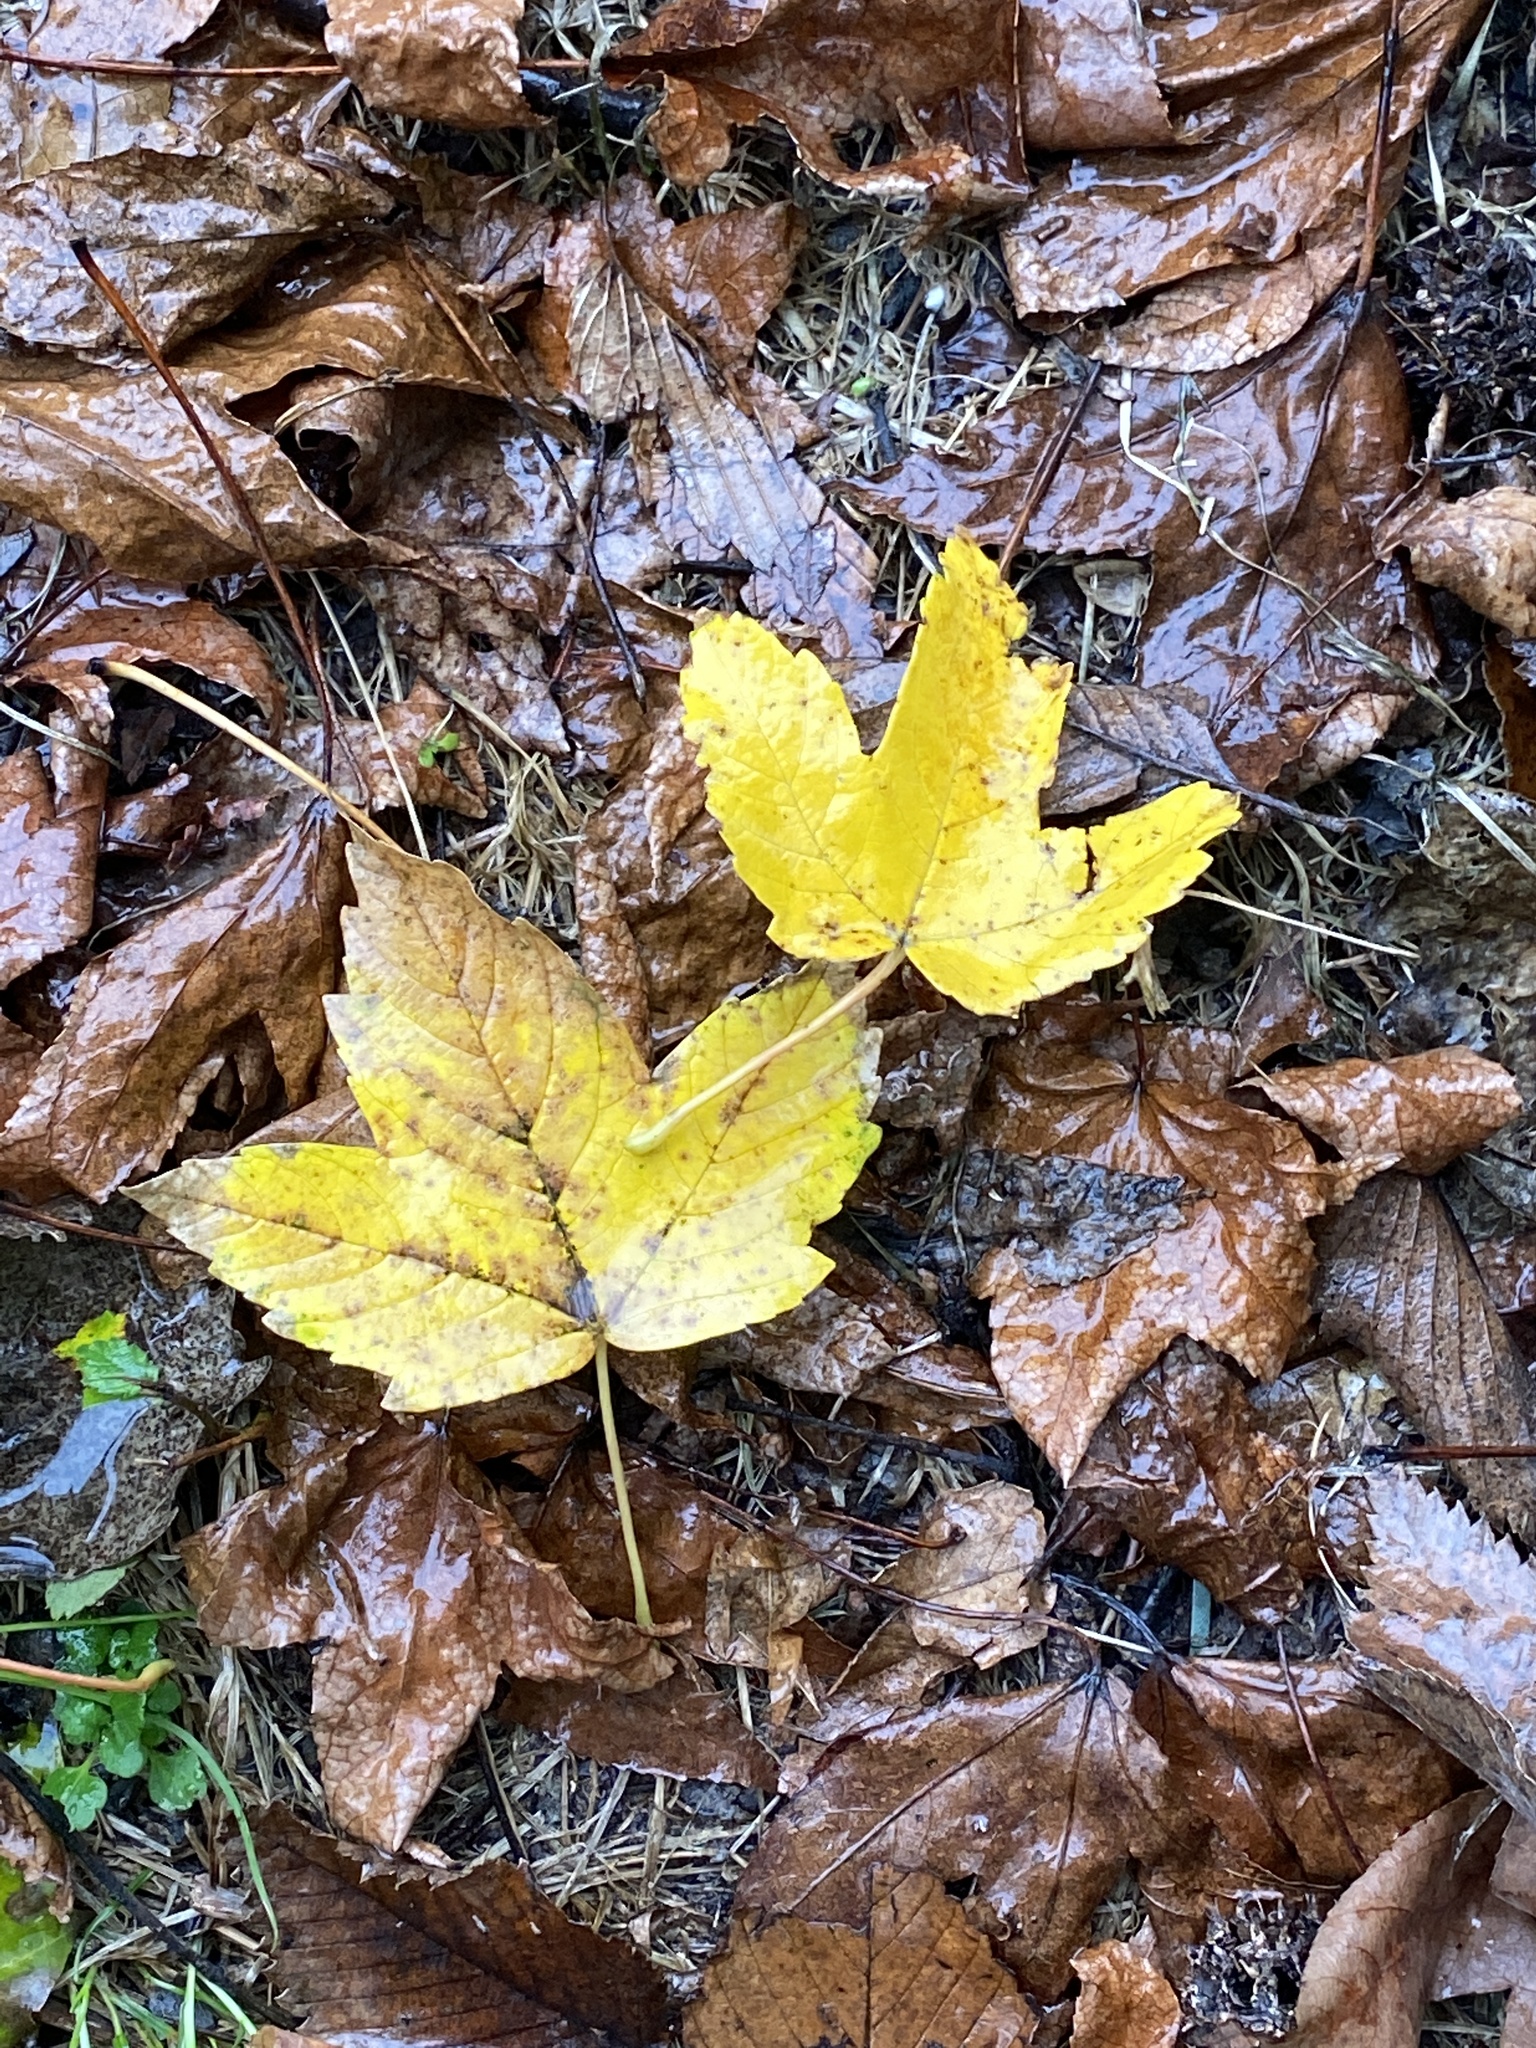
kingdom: Plantae
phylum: Tracheophyta
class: Magnoliopsida
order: Sapindales
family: Sapindaceae
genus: Acer
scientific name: Acer pseudoplatanus
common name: Sycamore
